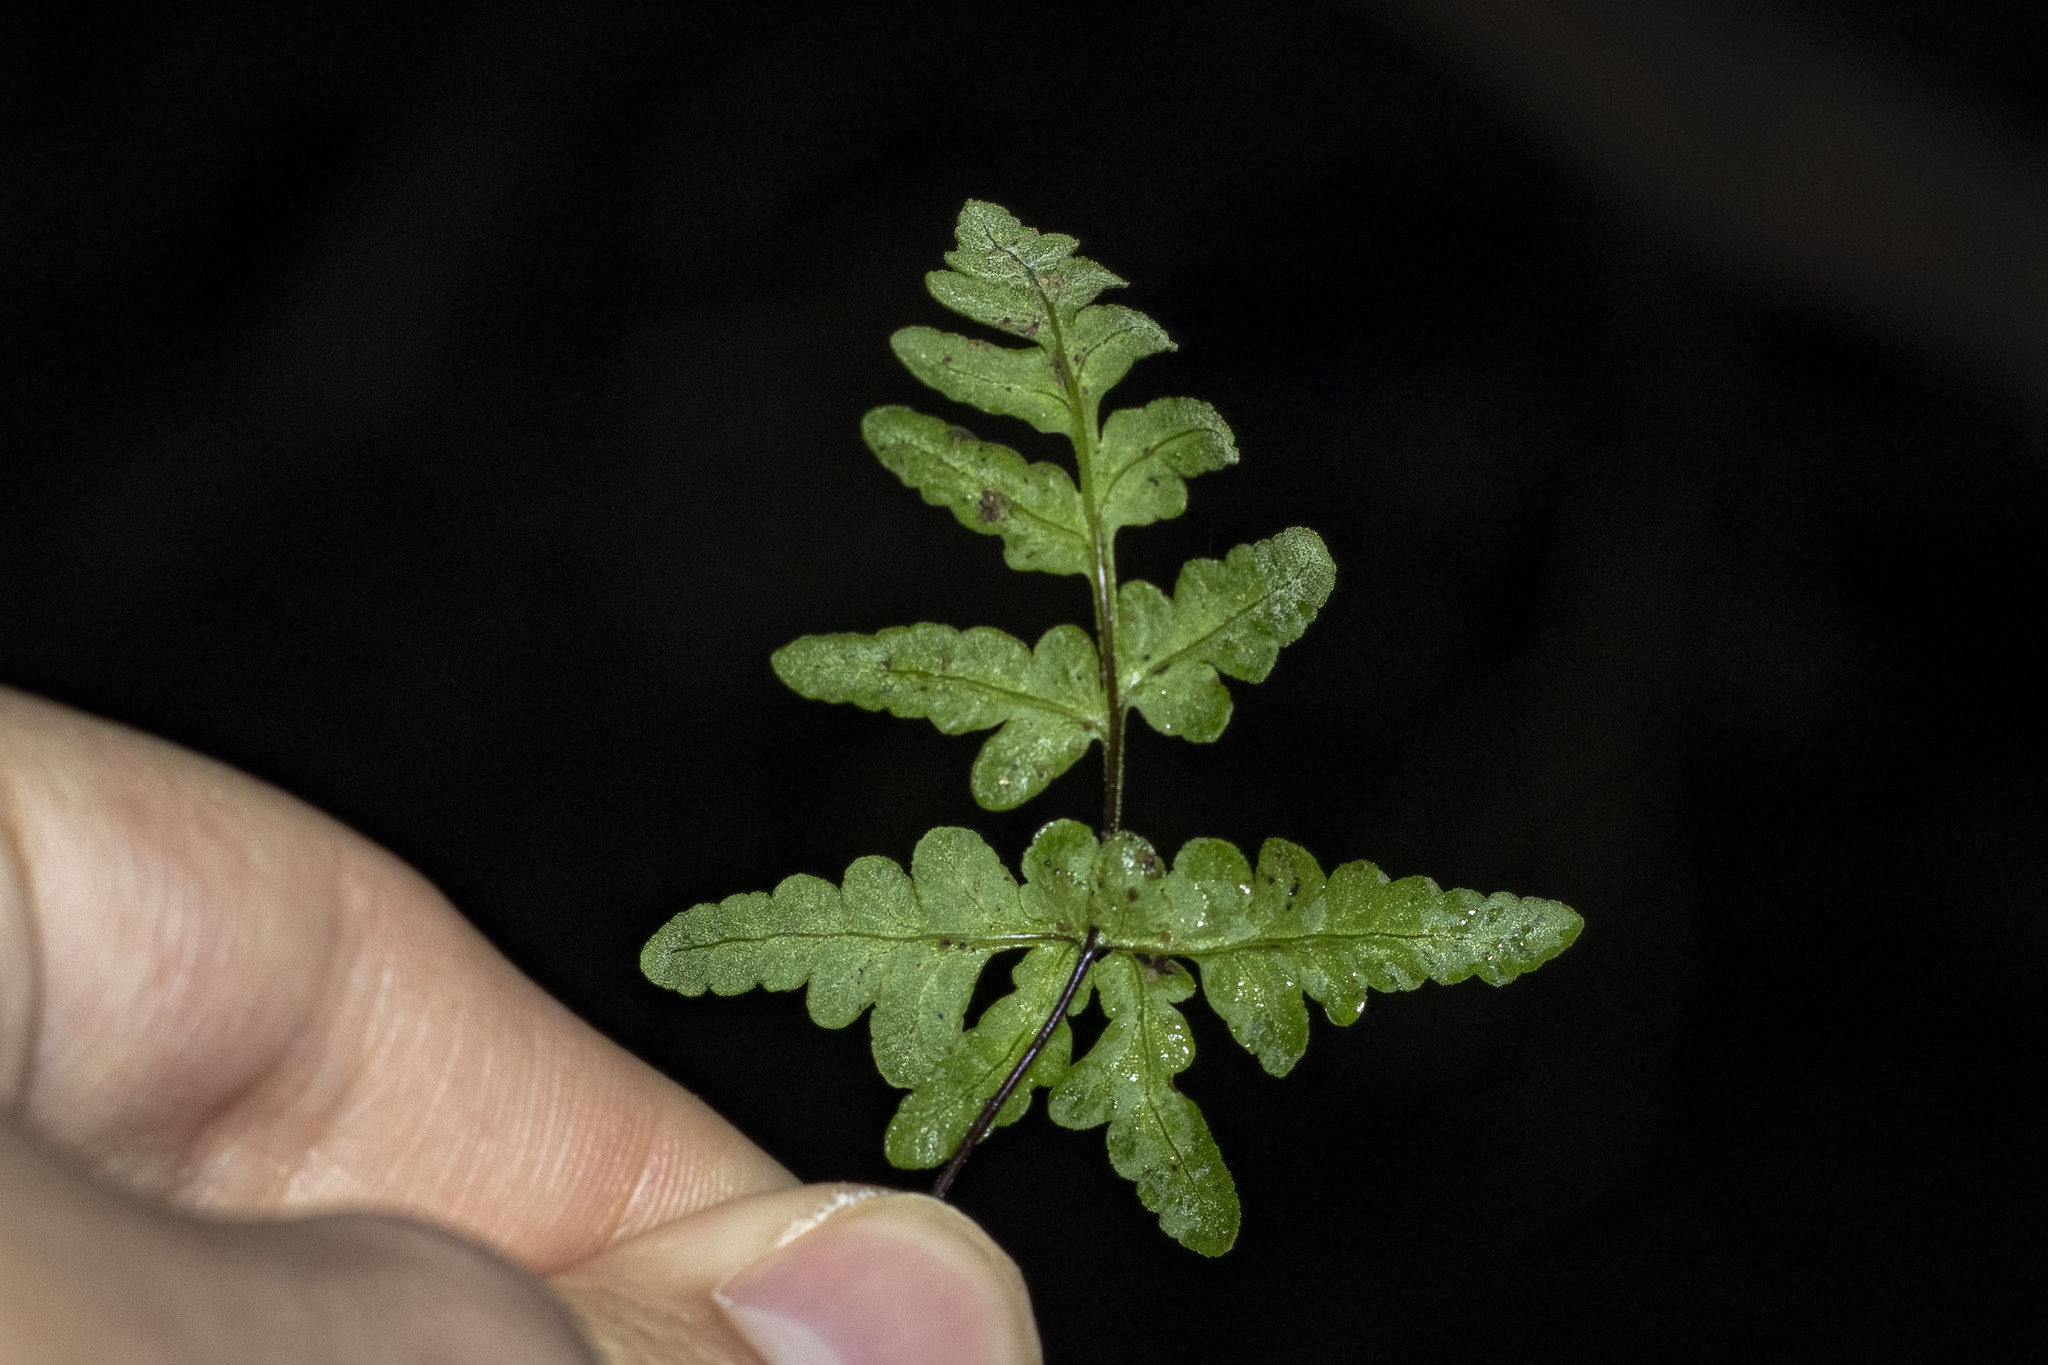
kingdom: Plantae
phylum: Tracheophyta
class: Polypodiopsida
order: Polypodiales
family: Pteridaceae
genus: Pentagramma
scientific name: Pentagramma triangularis
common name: Gold fern
